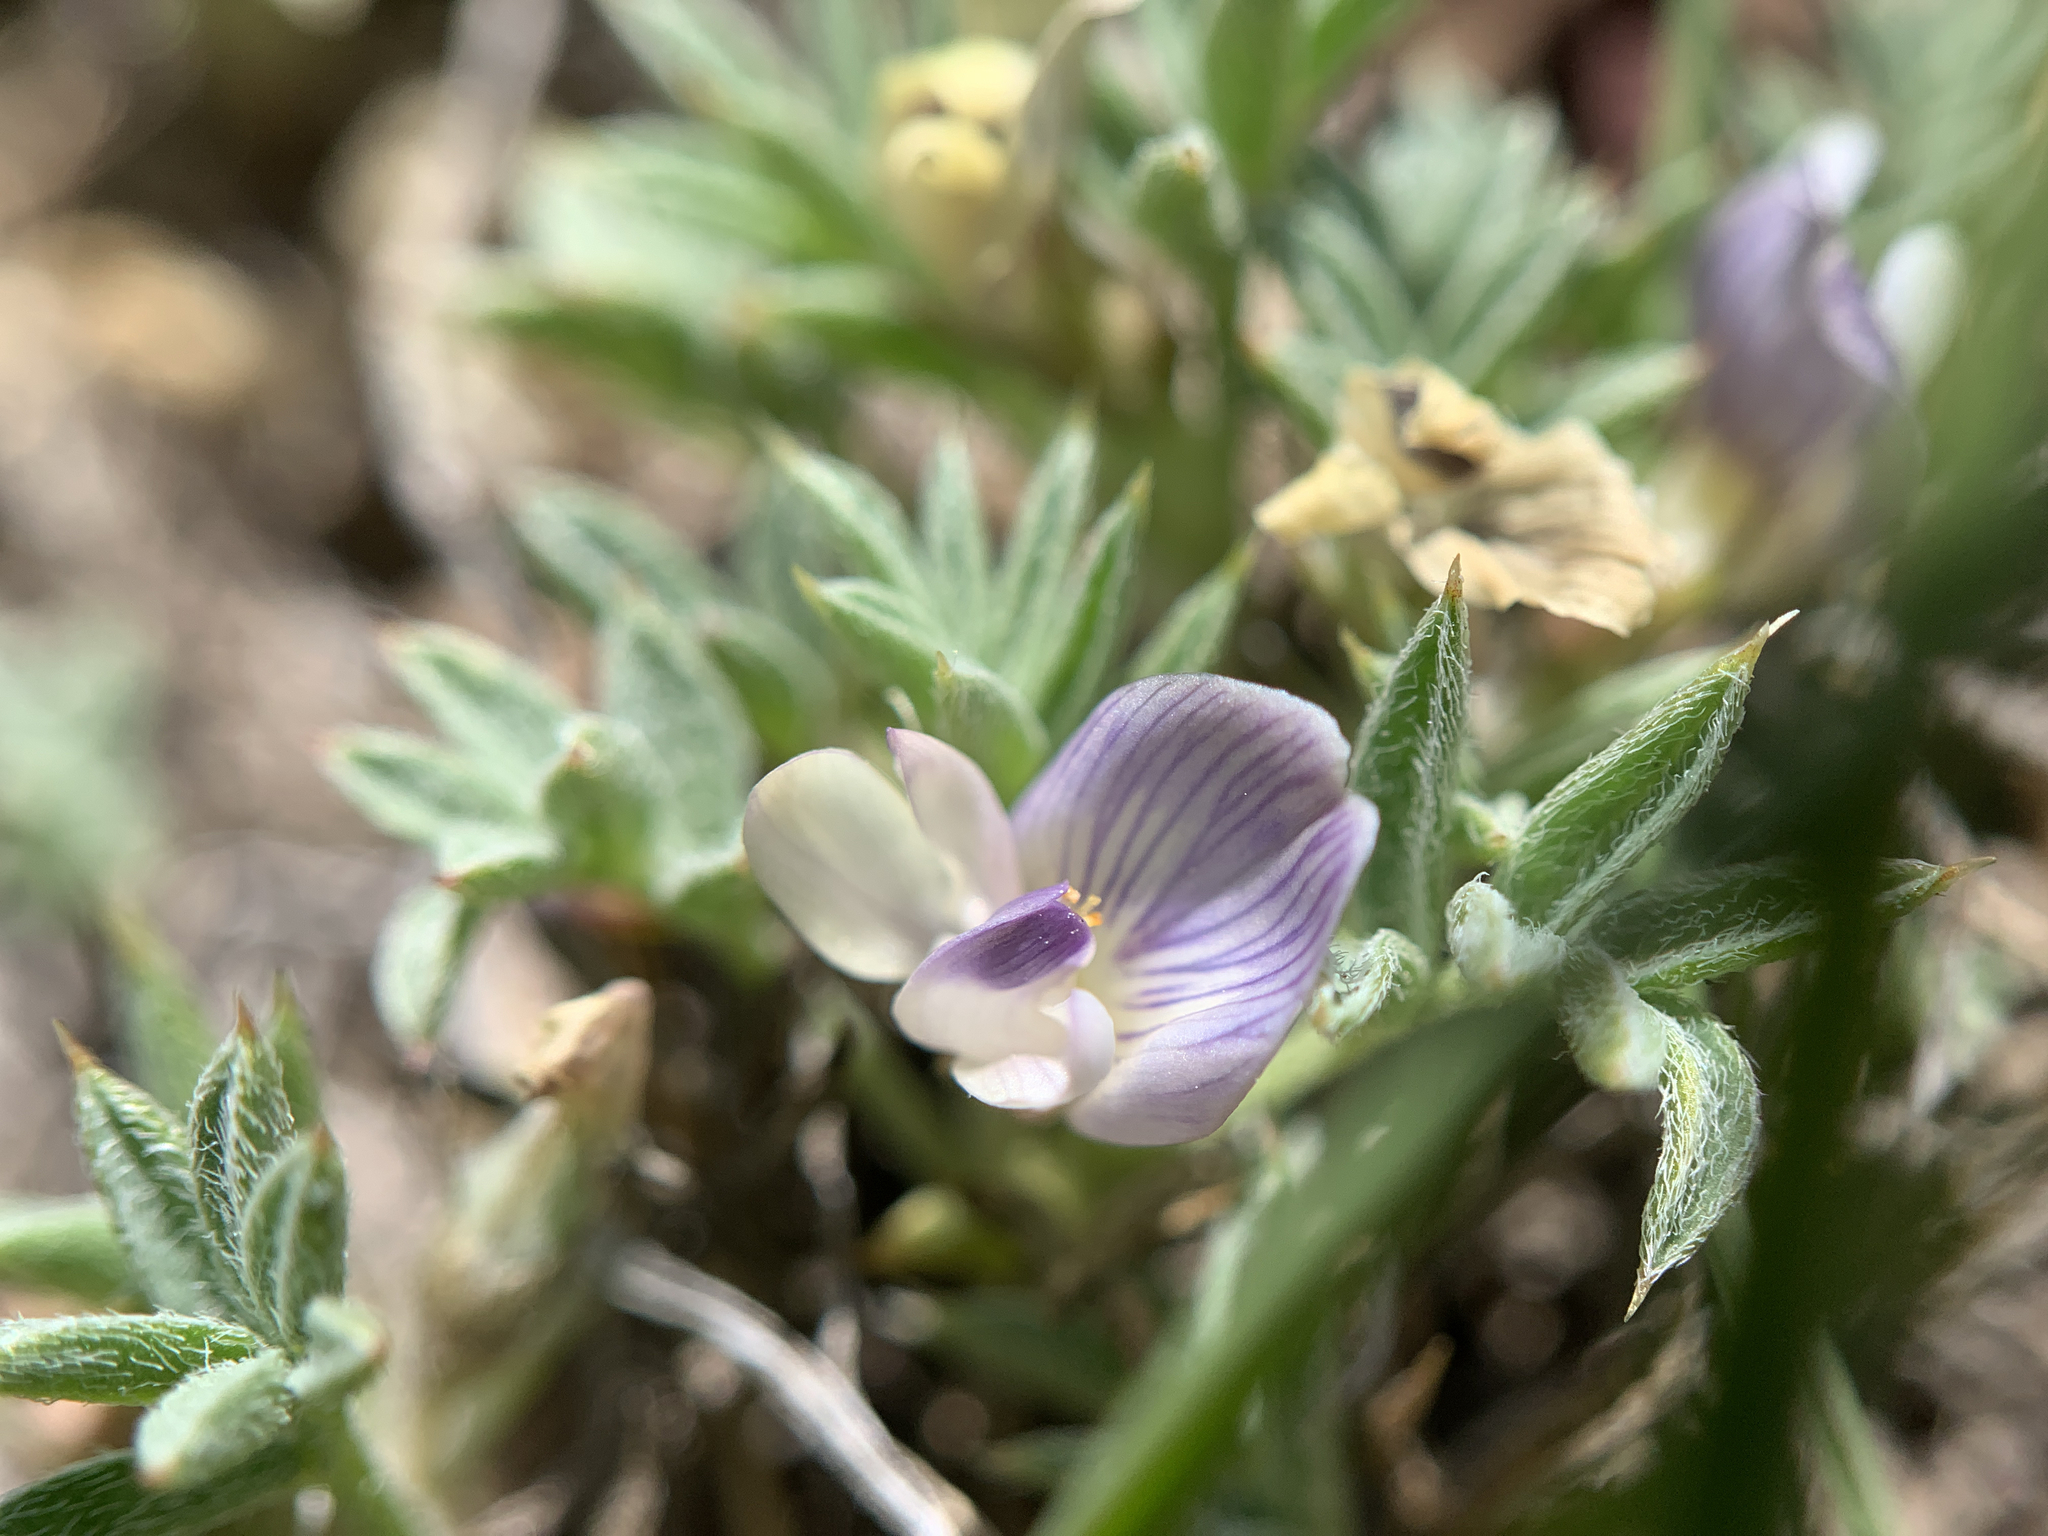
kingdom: Plantae
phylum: Tracheophyta
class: Magnoliopsida
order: Fabales
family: Fabaceae
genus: Astragalus
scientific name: Astragalus kentrophyta
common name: Prickly milk-vetch
